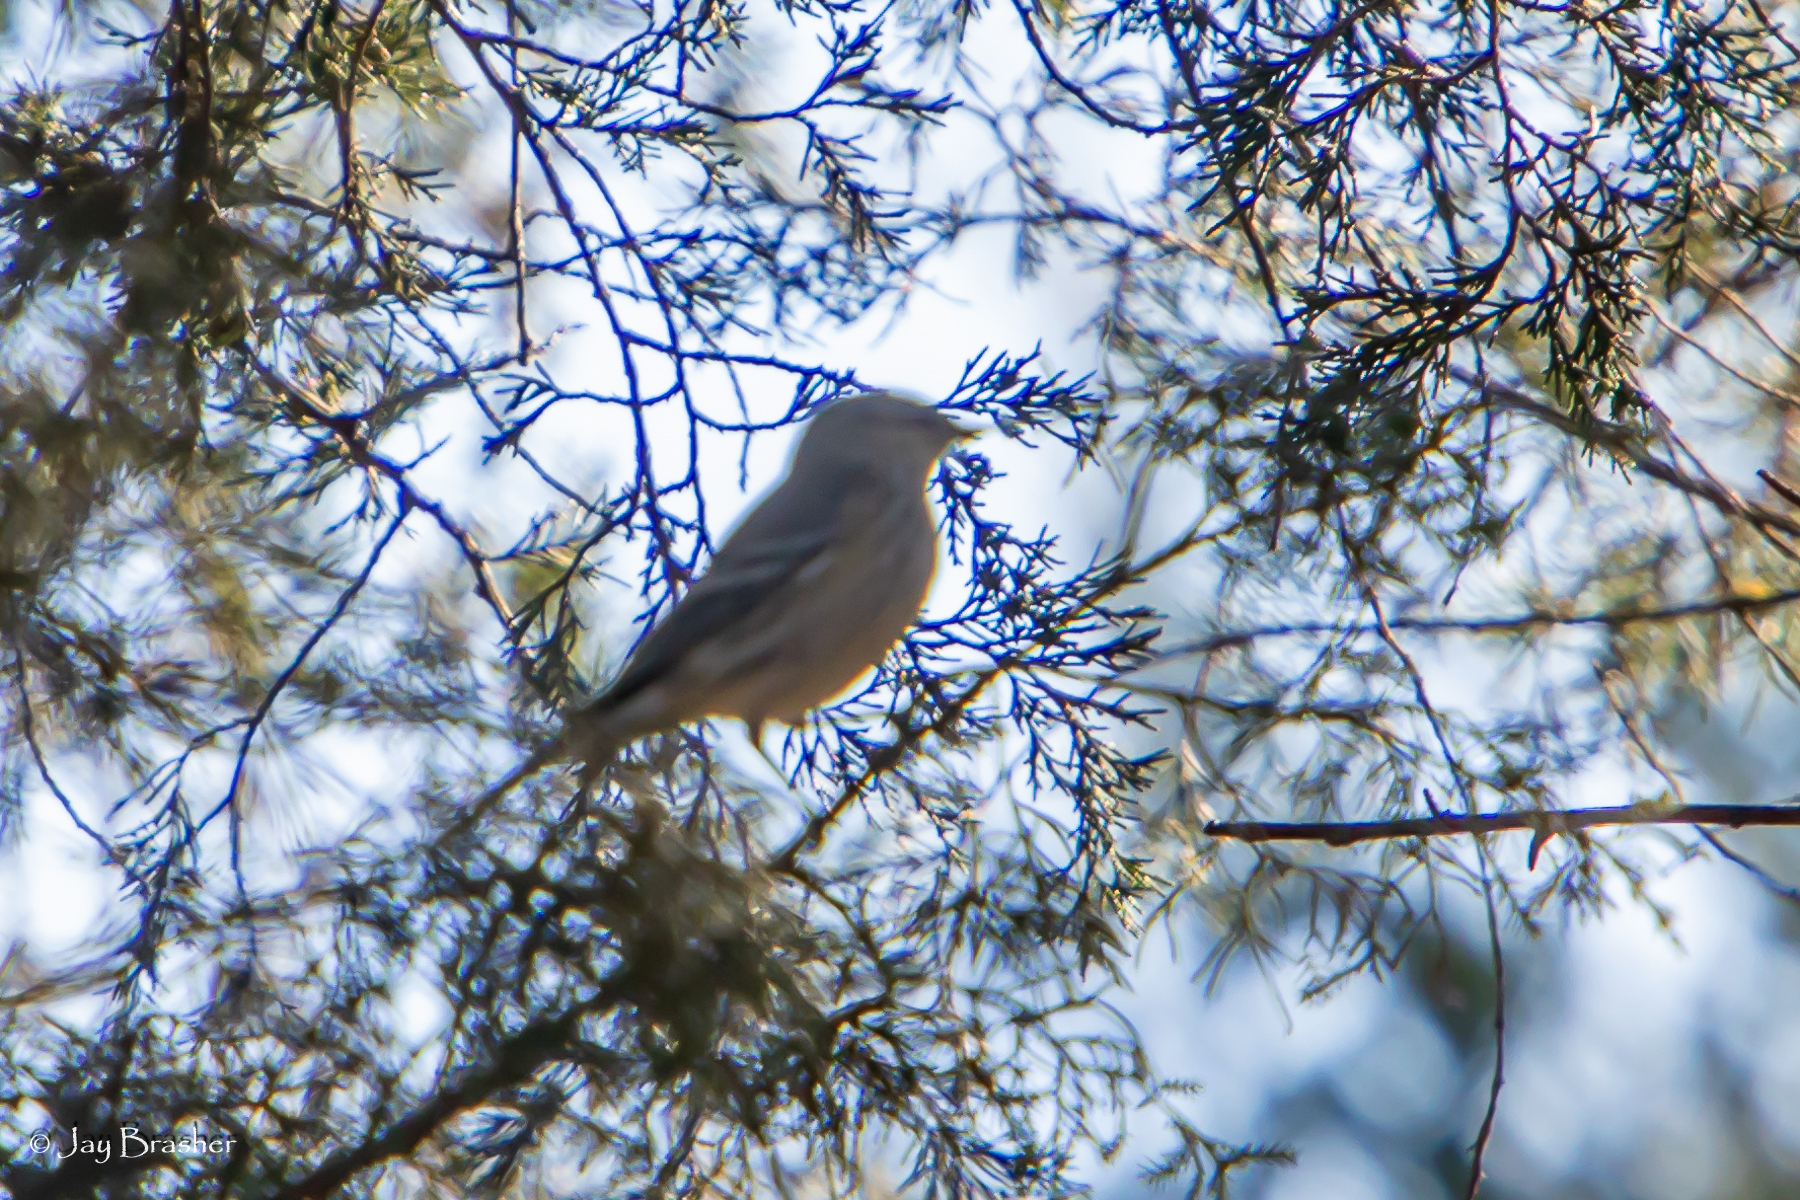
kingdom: Animalia
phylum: Chordata
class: Aves
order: Passeriformes
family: Parulidae
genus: Setophaga
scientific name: Setophaga coronata
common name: Myrtle warbler
